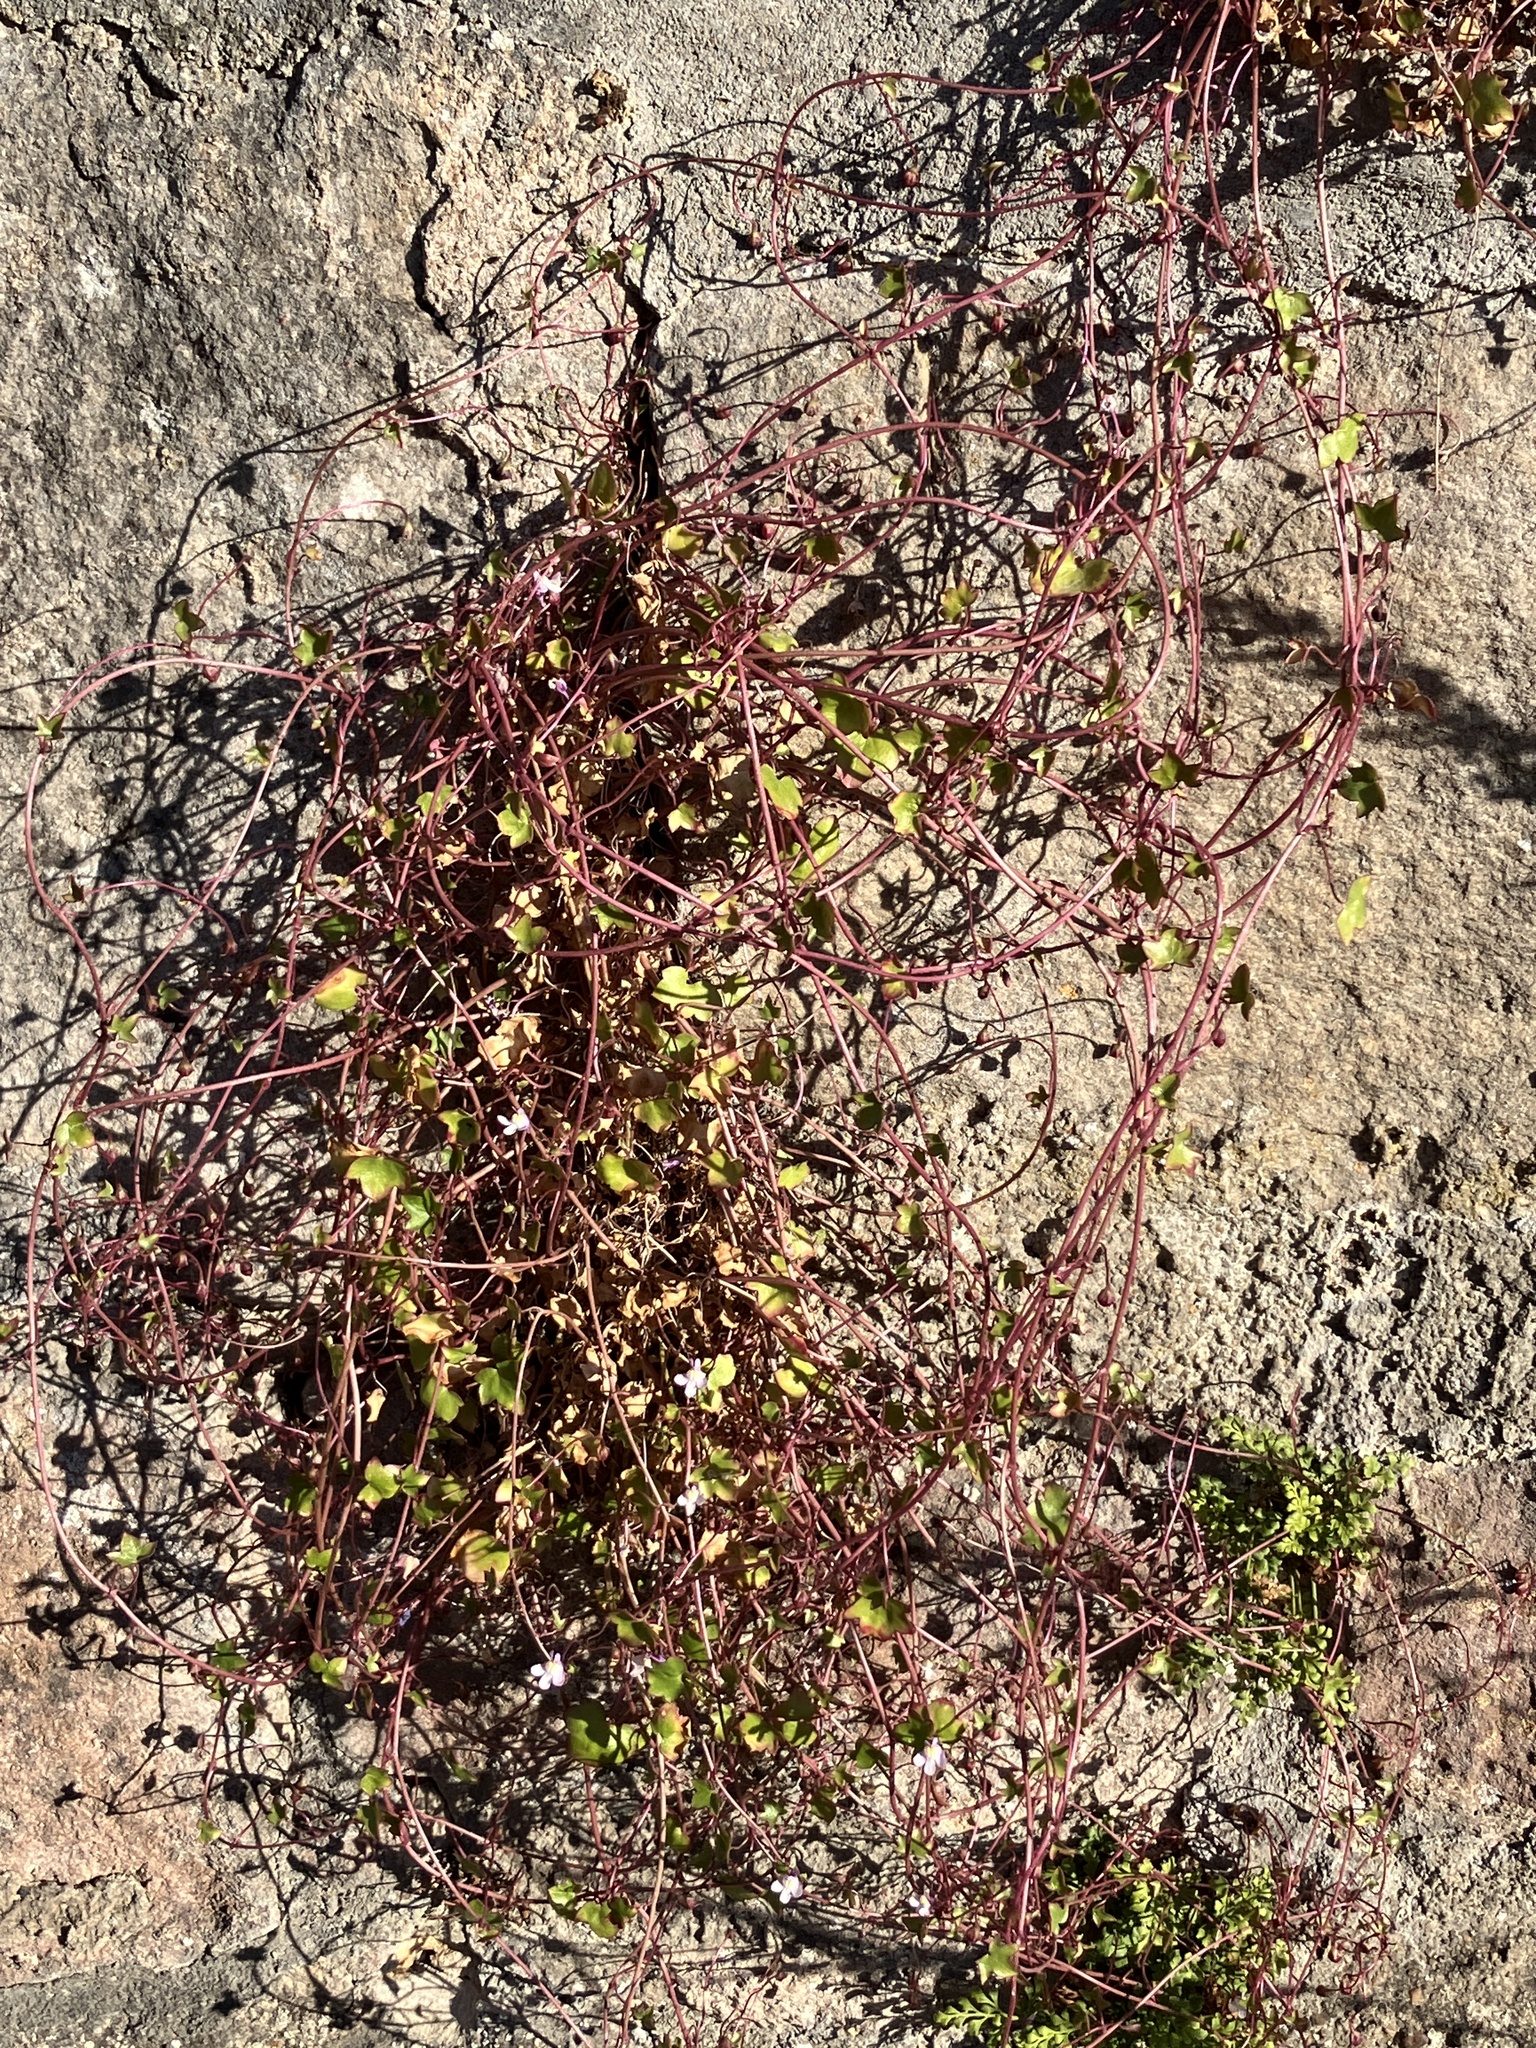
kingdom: Plantae
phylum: Tracheophyta
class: Magnoliopsida
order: Lamiales
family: Plantaginaceae
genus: Cymbalaria
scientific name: Cymbalaria muralis
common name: Ivy-leaved toadflax
